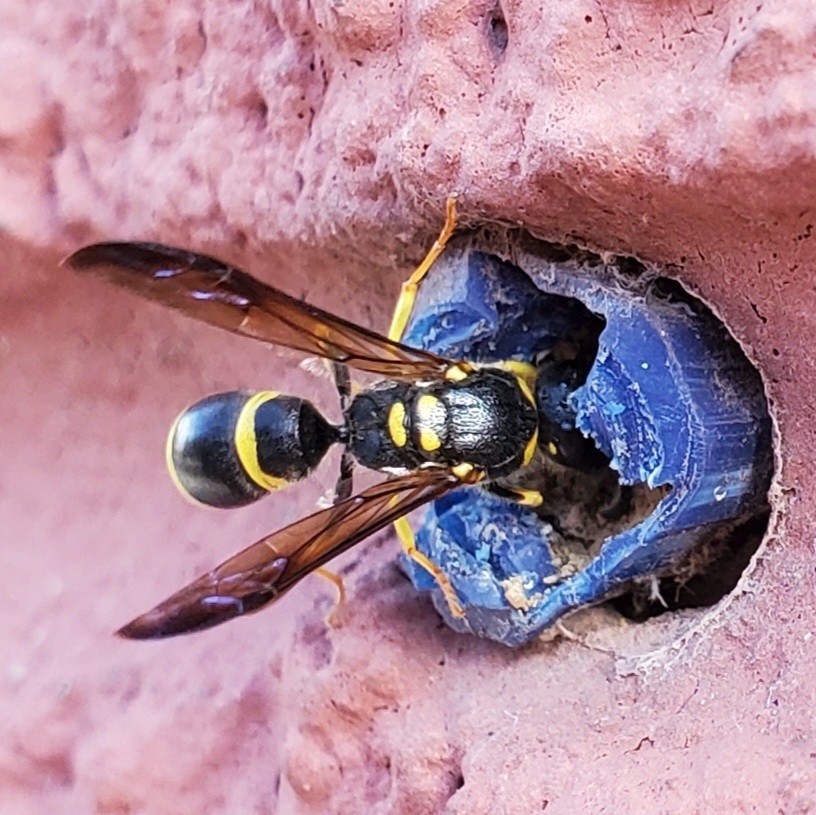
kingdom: Animalia
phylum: Arthropoda
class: Insecta
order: Hymenoptera
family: Vespidae
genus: Ancistrocerus
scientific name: Ancistrocerus adiabatus
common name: Bramble mason wasp
